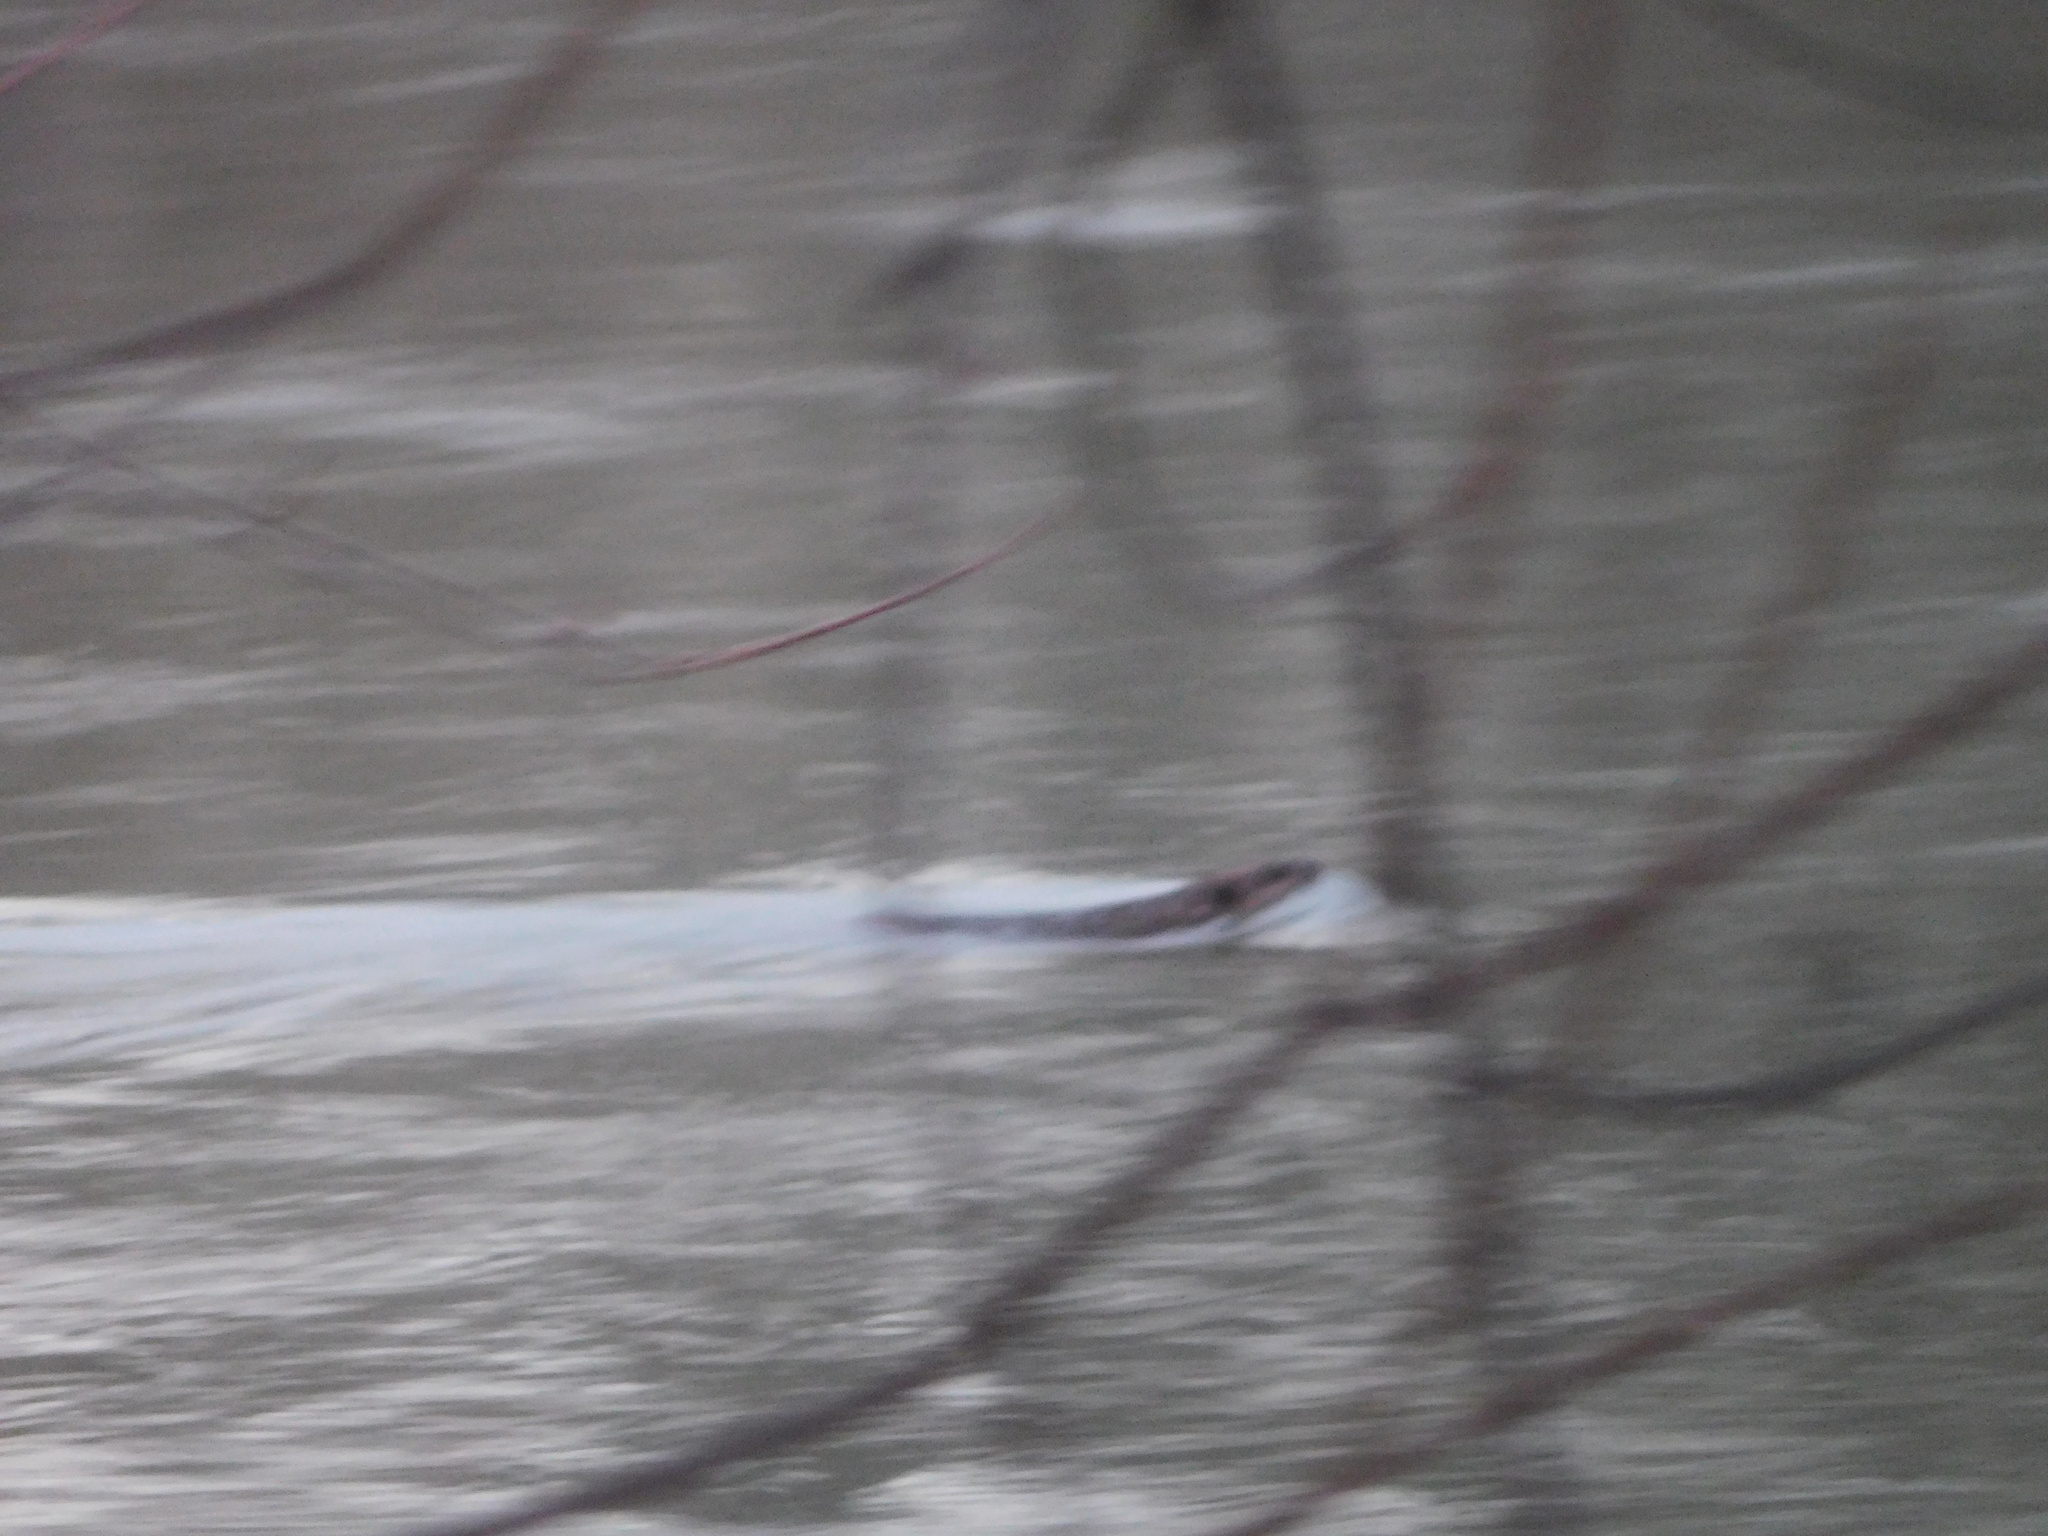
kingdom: Animalia
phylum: Chordata
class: Mammalia
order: Rodentia
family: Castoridae
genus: Castor
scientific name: Castor canadensis
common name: American beaver
